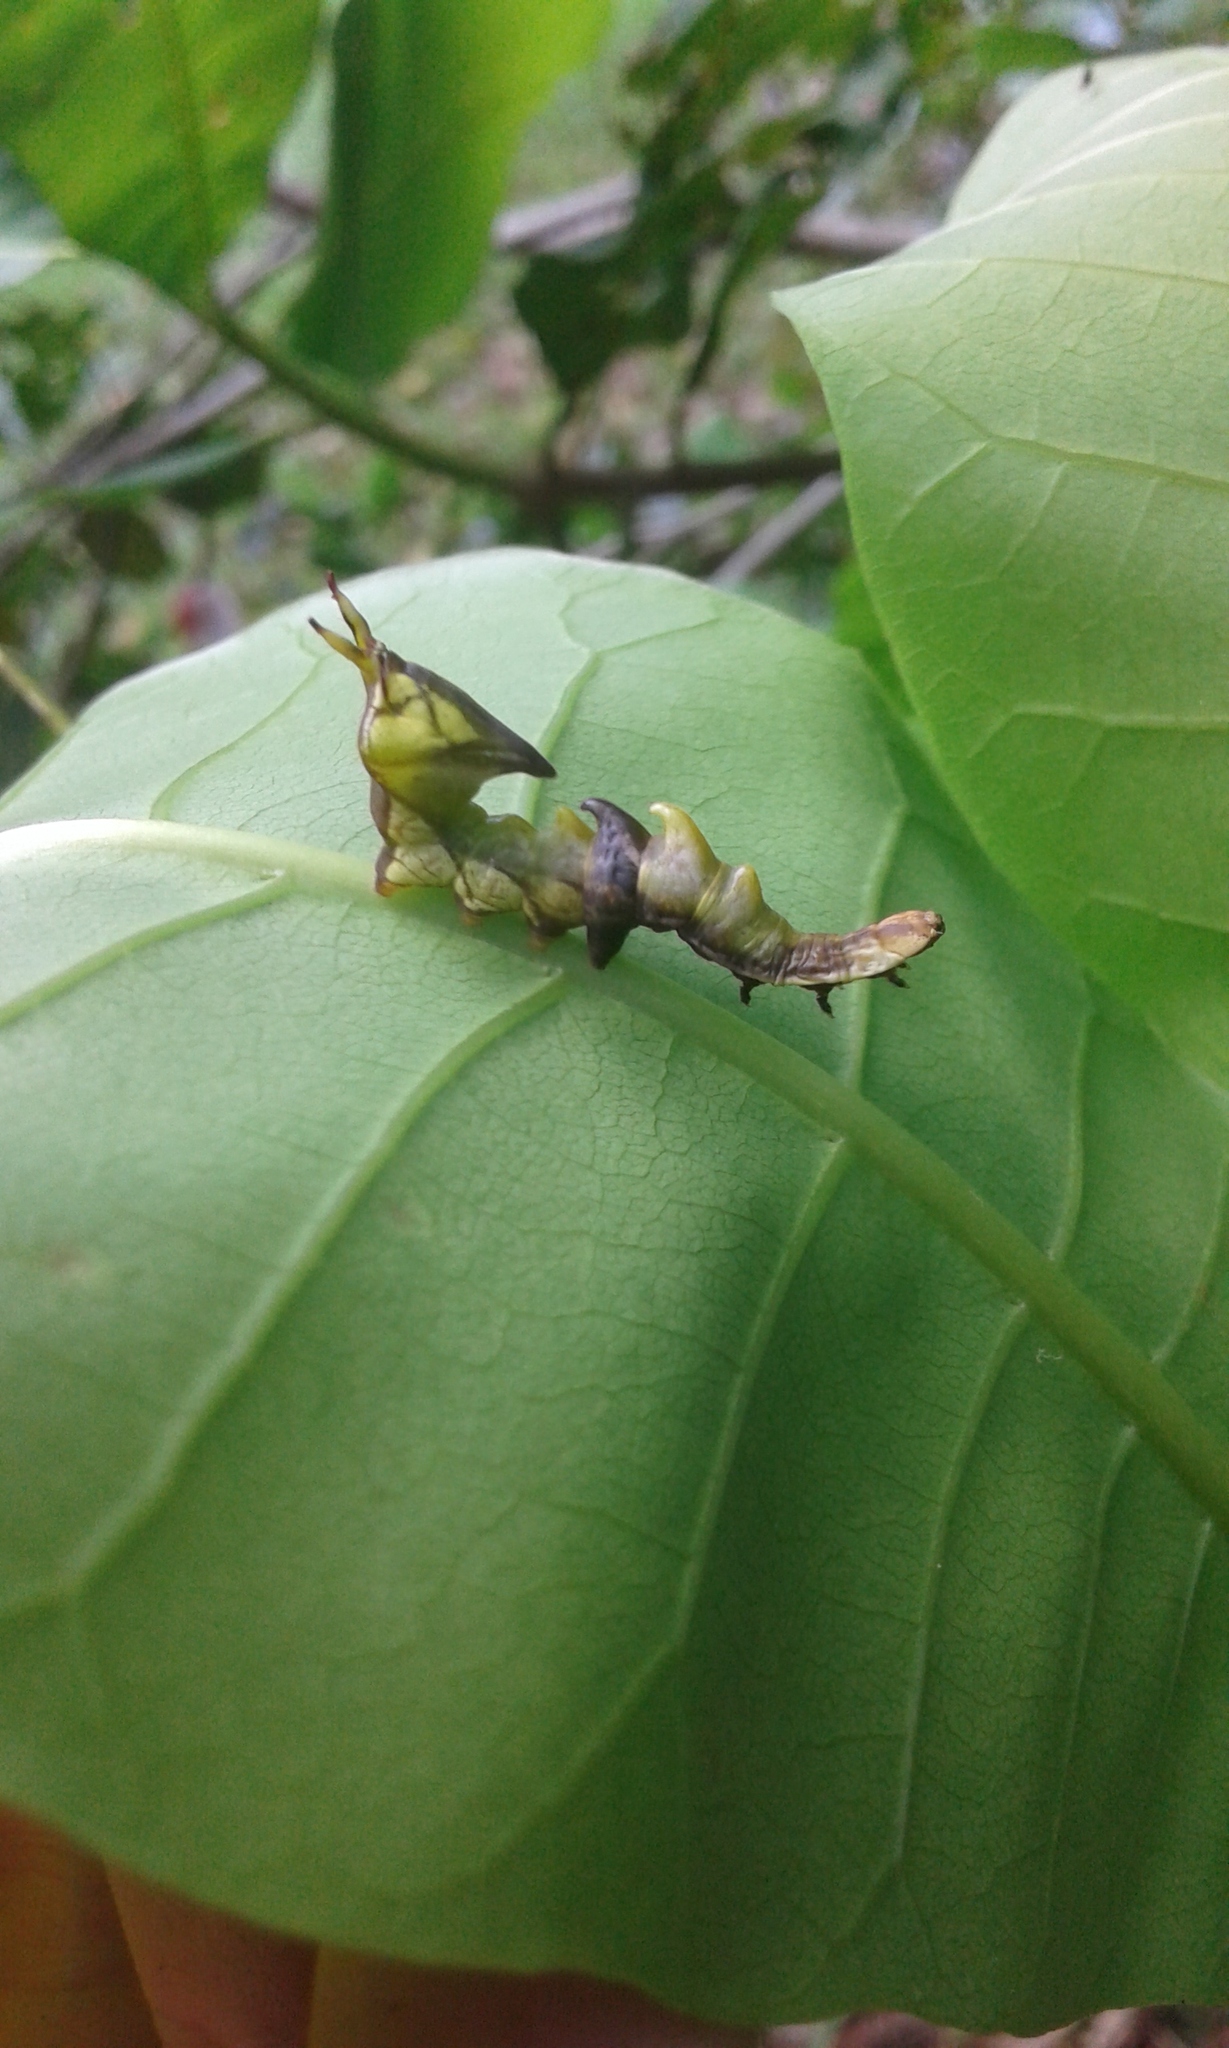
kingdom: Animalia
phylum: Arthropoda
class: Insecta
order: Lepidoptera
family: Notodontidae
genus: Nystalea
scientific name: Nystalea ebalea
